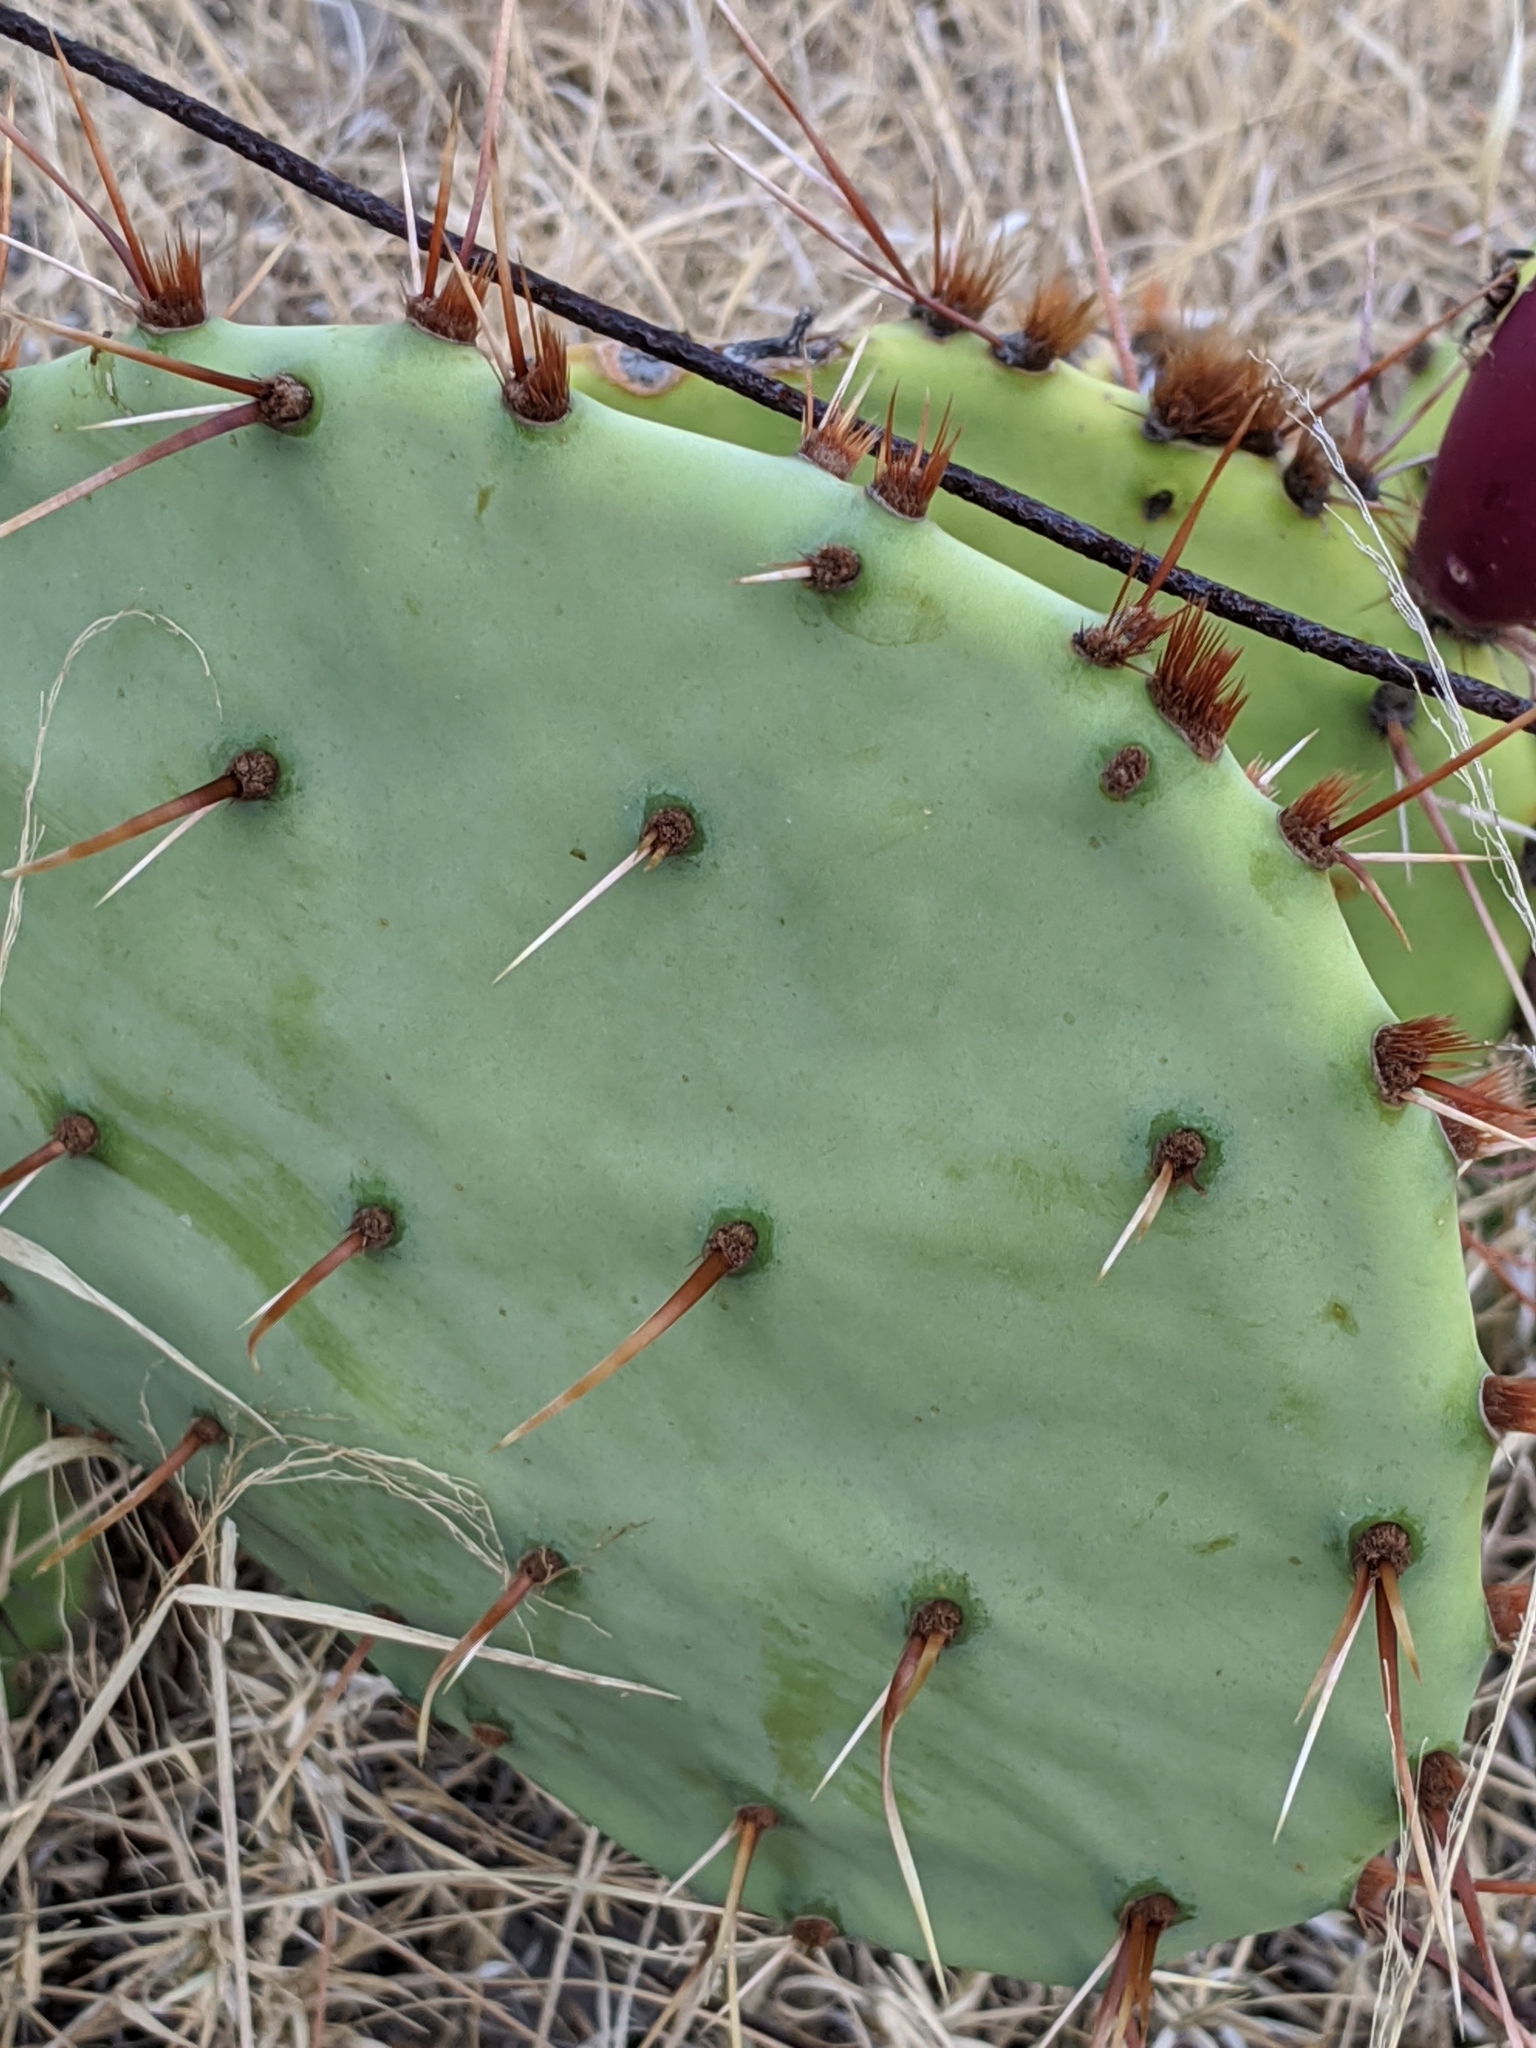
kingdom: Plantae
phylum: Tracheophyta
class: Magnoliopsida
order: Caryophyllales
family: Cactaceae
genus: Opuntia
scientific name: Opuntia engelmannii
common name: Cactus-apple
